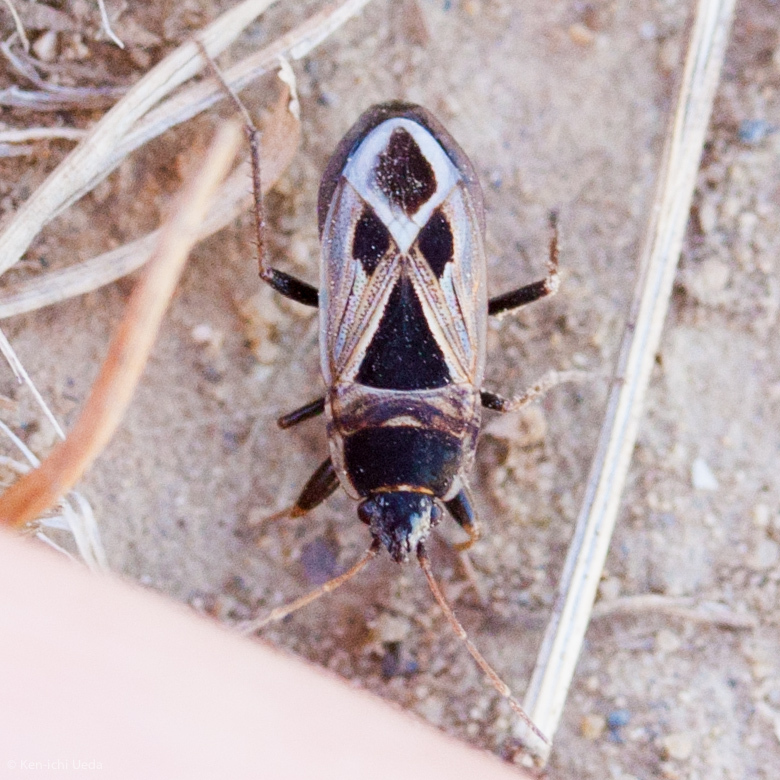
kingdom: Animalia
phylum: Arthropoda
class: Insecta
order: Hemiptera
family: Rhyparochromidae
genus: Xanthochilus
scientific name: Xanthochilus saturnius
